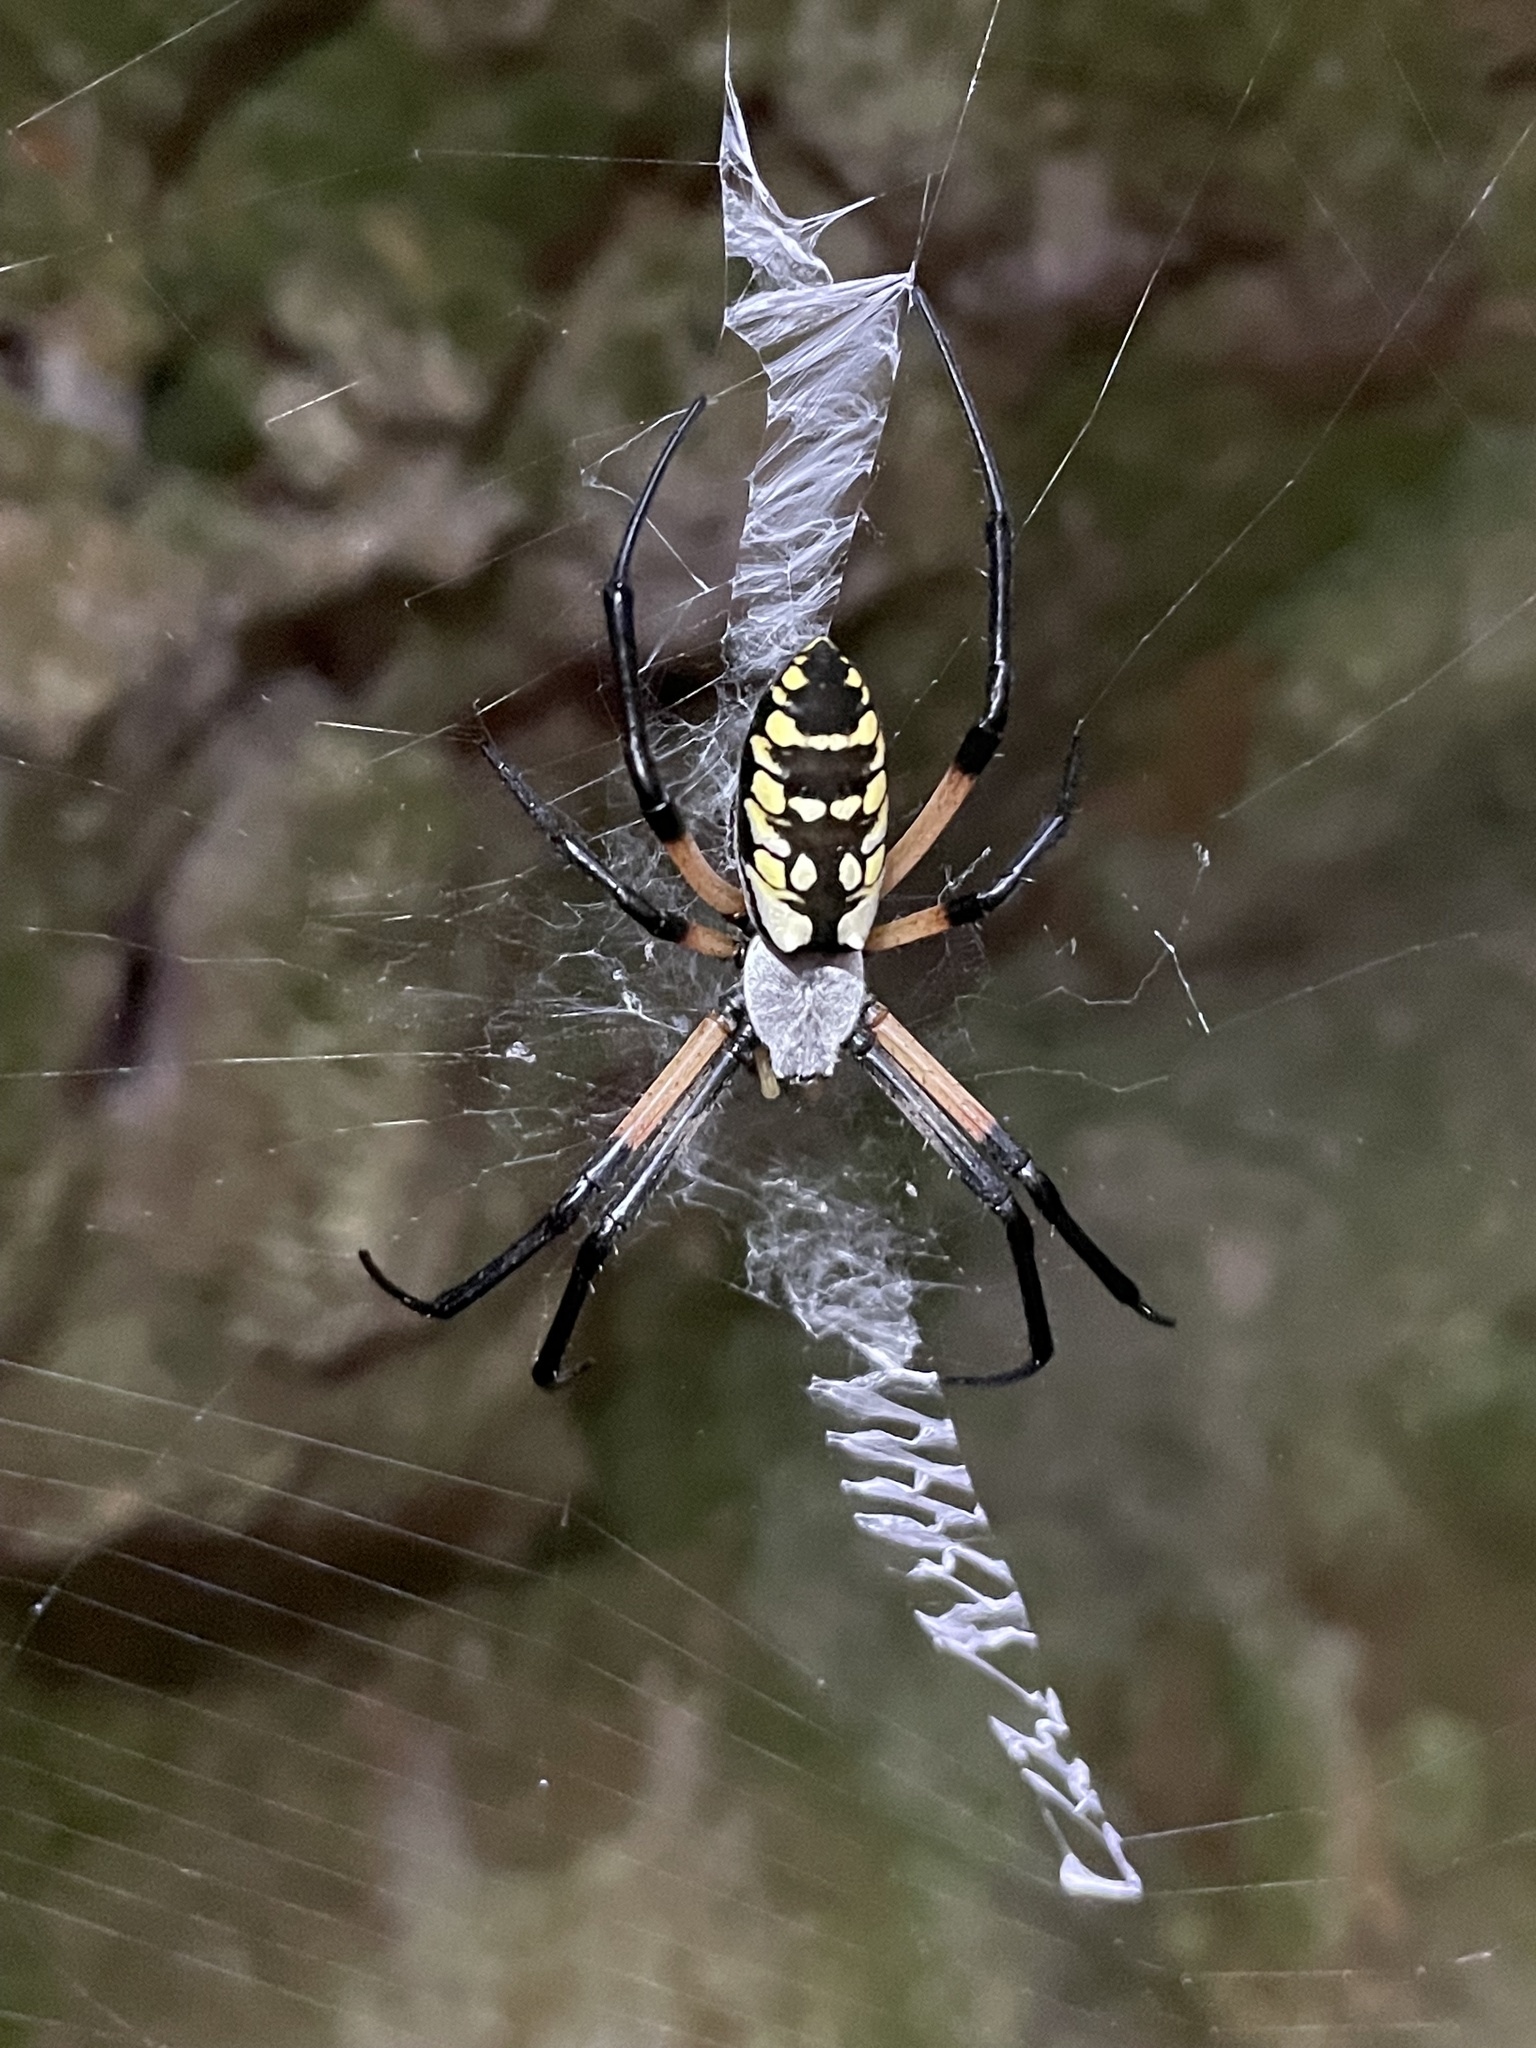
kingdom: Animalia
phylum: Arthropoda
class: Arachnida
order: Araneae
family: Araneidae
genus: Argiope
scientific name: Argiope aurantia
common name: Orb weavers
